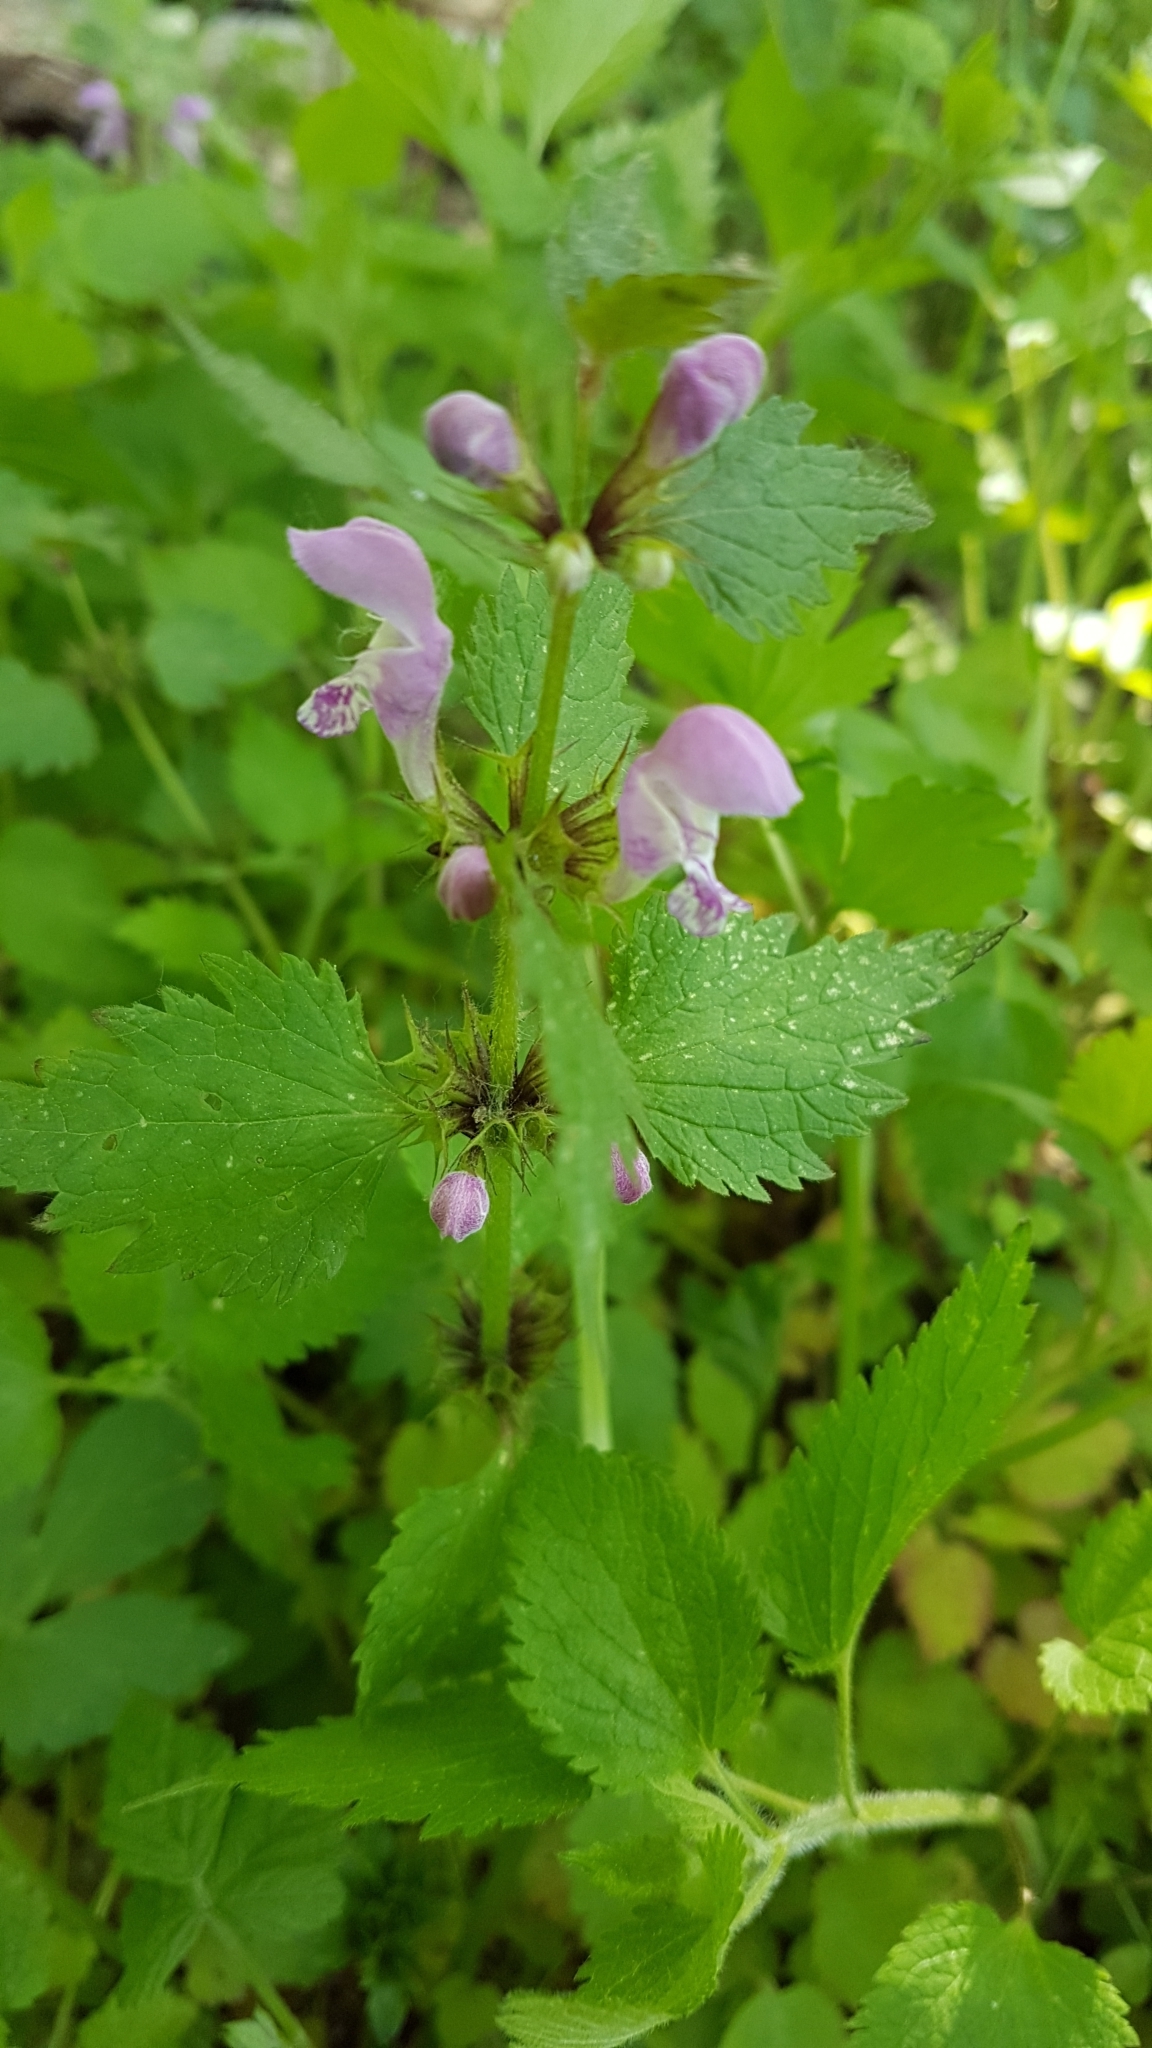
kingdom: Plantae
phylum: Tracheophyta
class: Magnoliopsida
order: Lamiales
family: Lamiaceae
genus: Lamium
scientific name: Lamium maculatum
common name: Spotted dead-nettle
